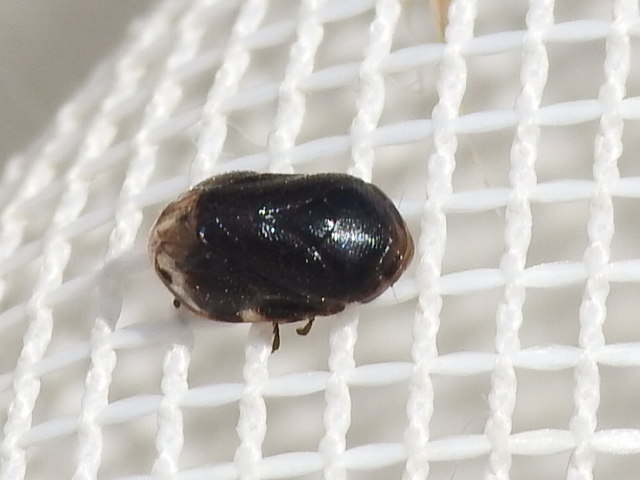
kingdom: Animalia
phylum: Arthropoda
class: Insecta
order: Hemiptera
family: Clastopteridae
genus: Clastoptera
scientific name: Clastoptera xanthocephala
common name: Sunflower spittlebug
